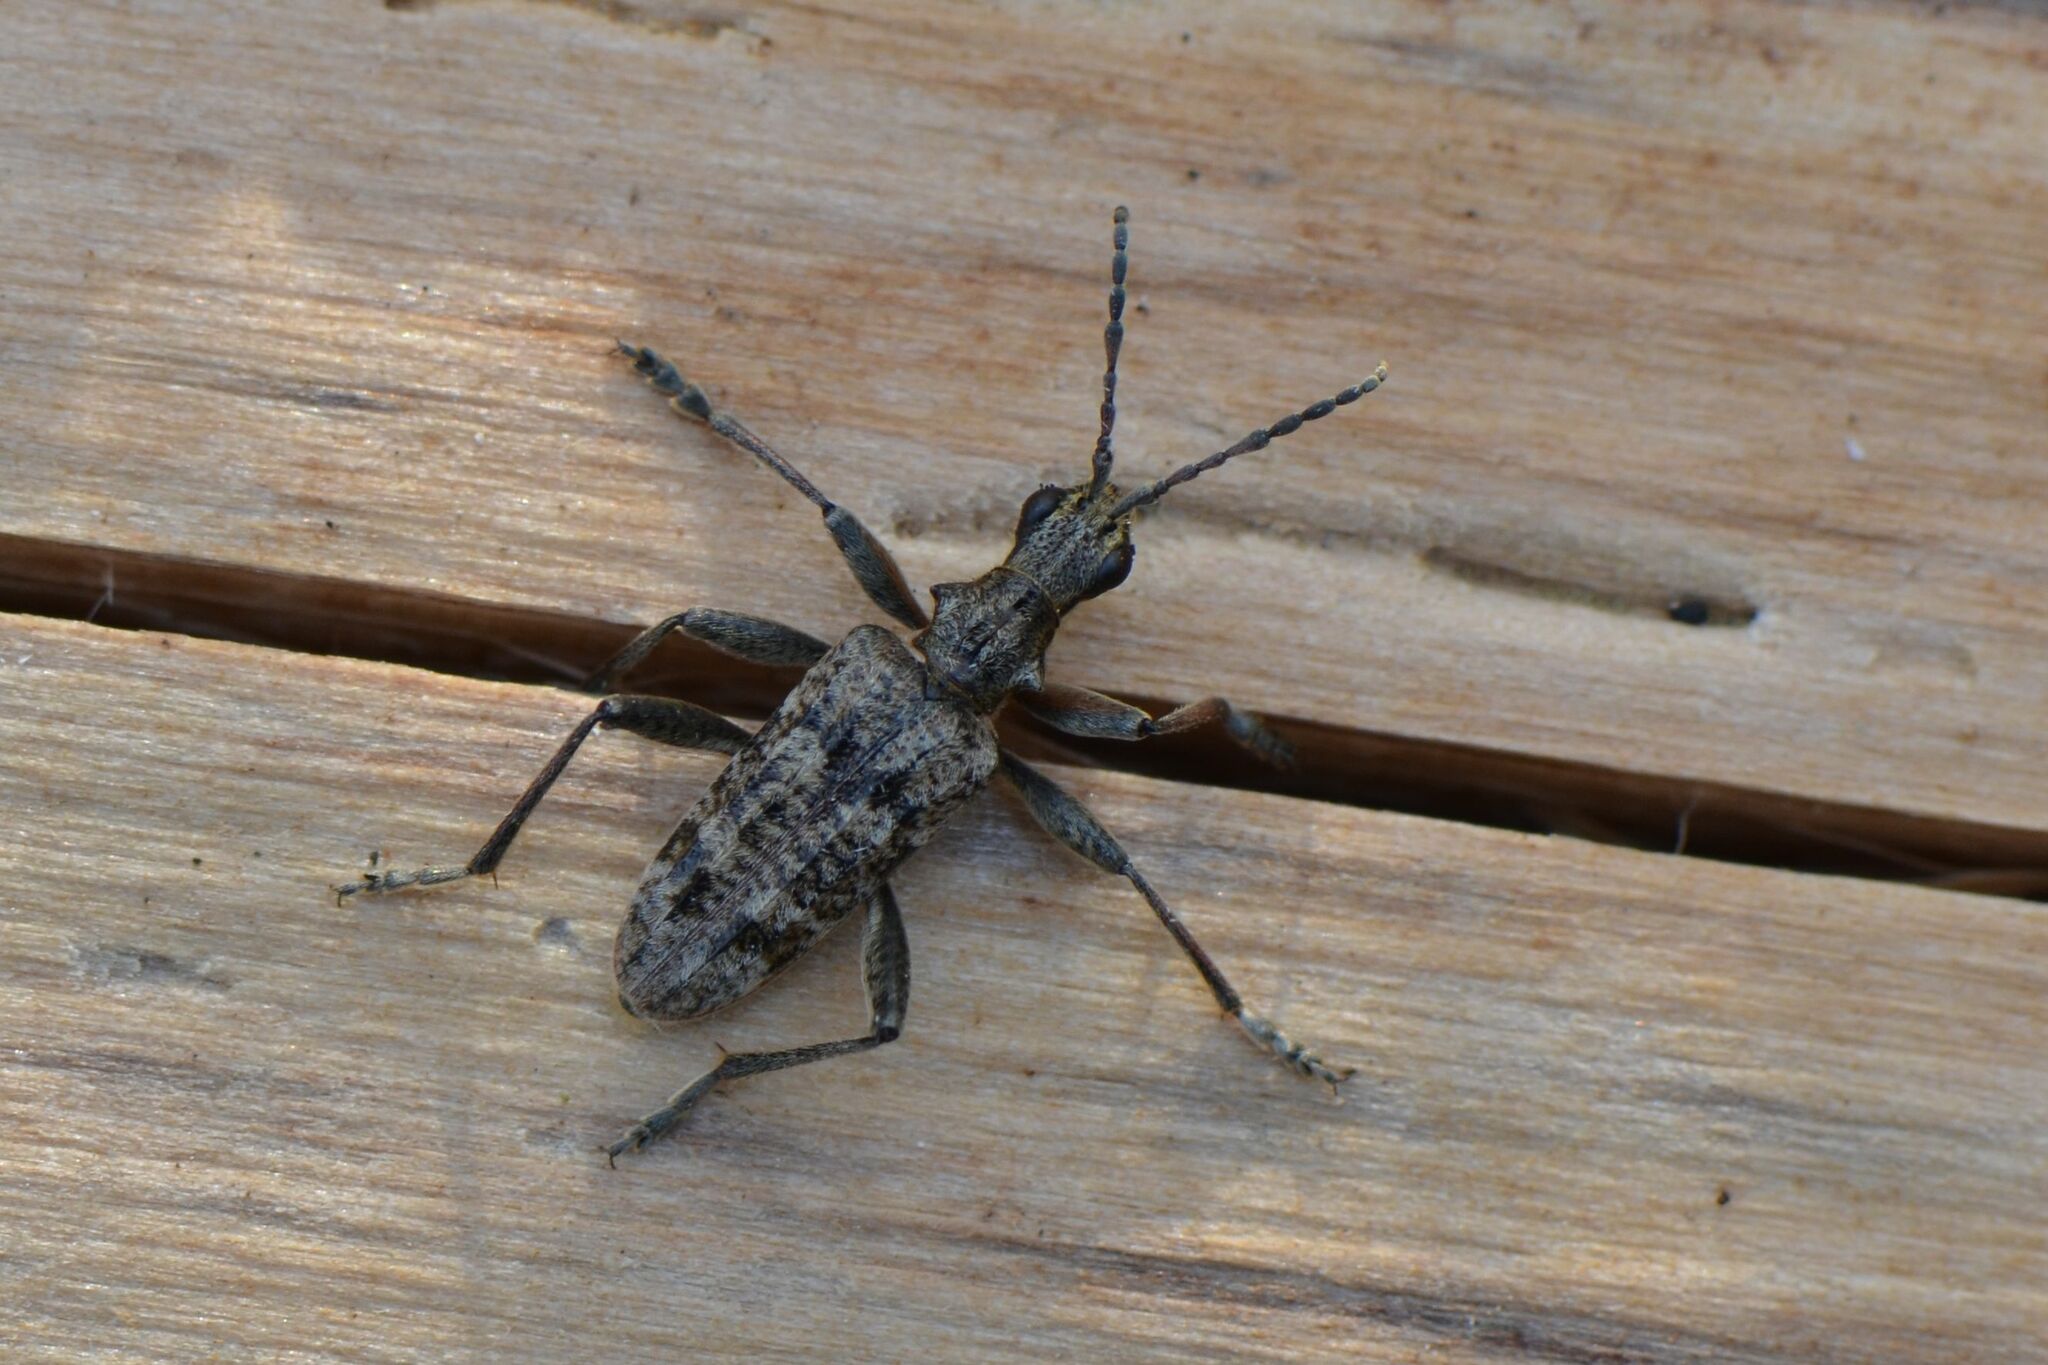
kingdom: Animalia
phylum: Arthropoda
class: Insecta
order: Coleoptera
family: Cerambycidae
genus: Rhagium
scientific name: Rhagium inquisitor
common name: Ribbed pine borer
